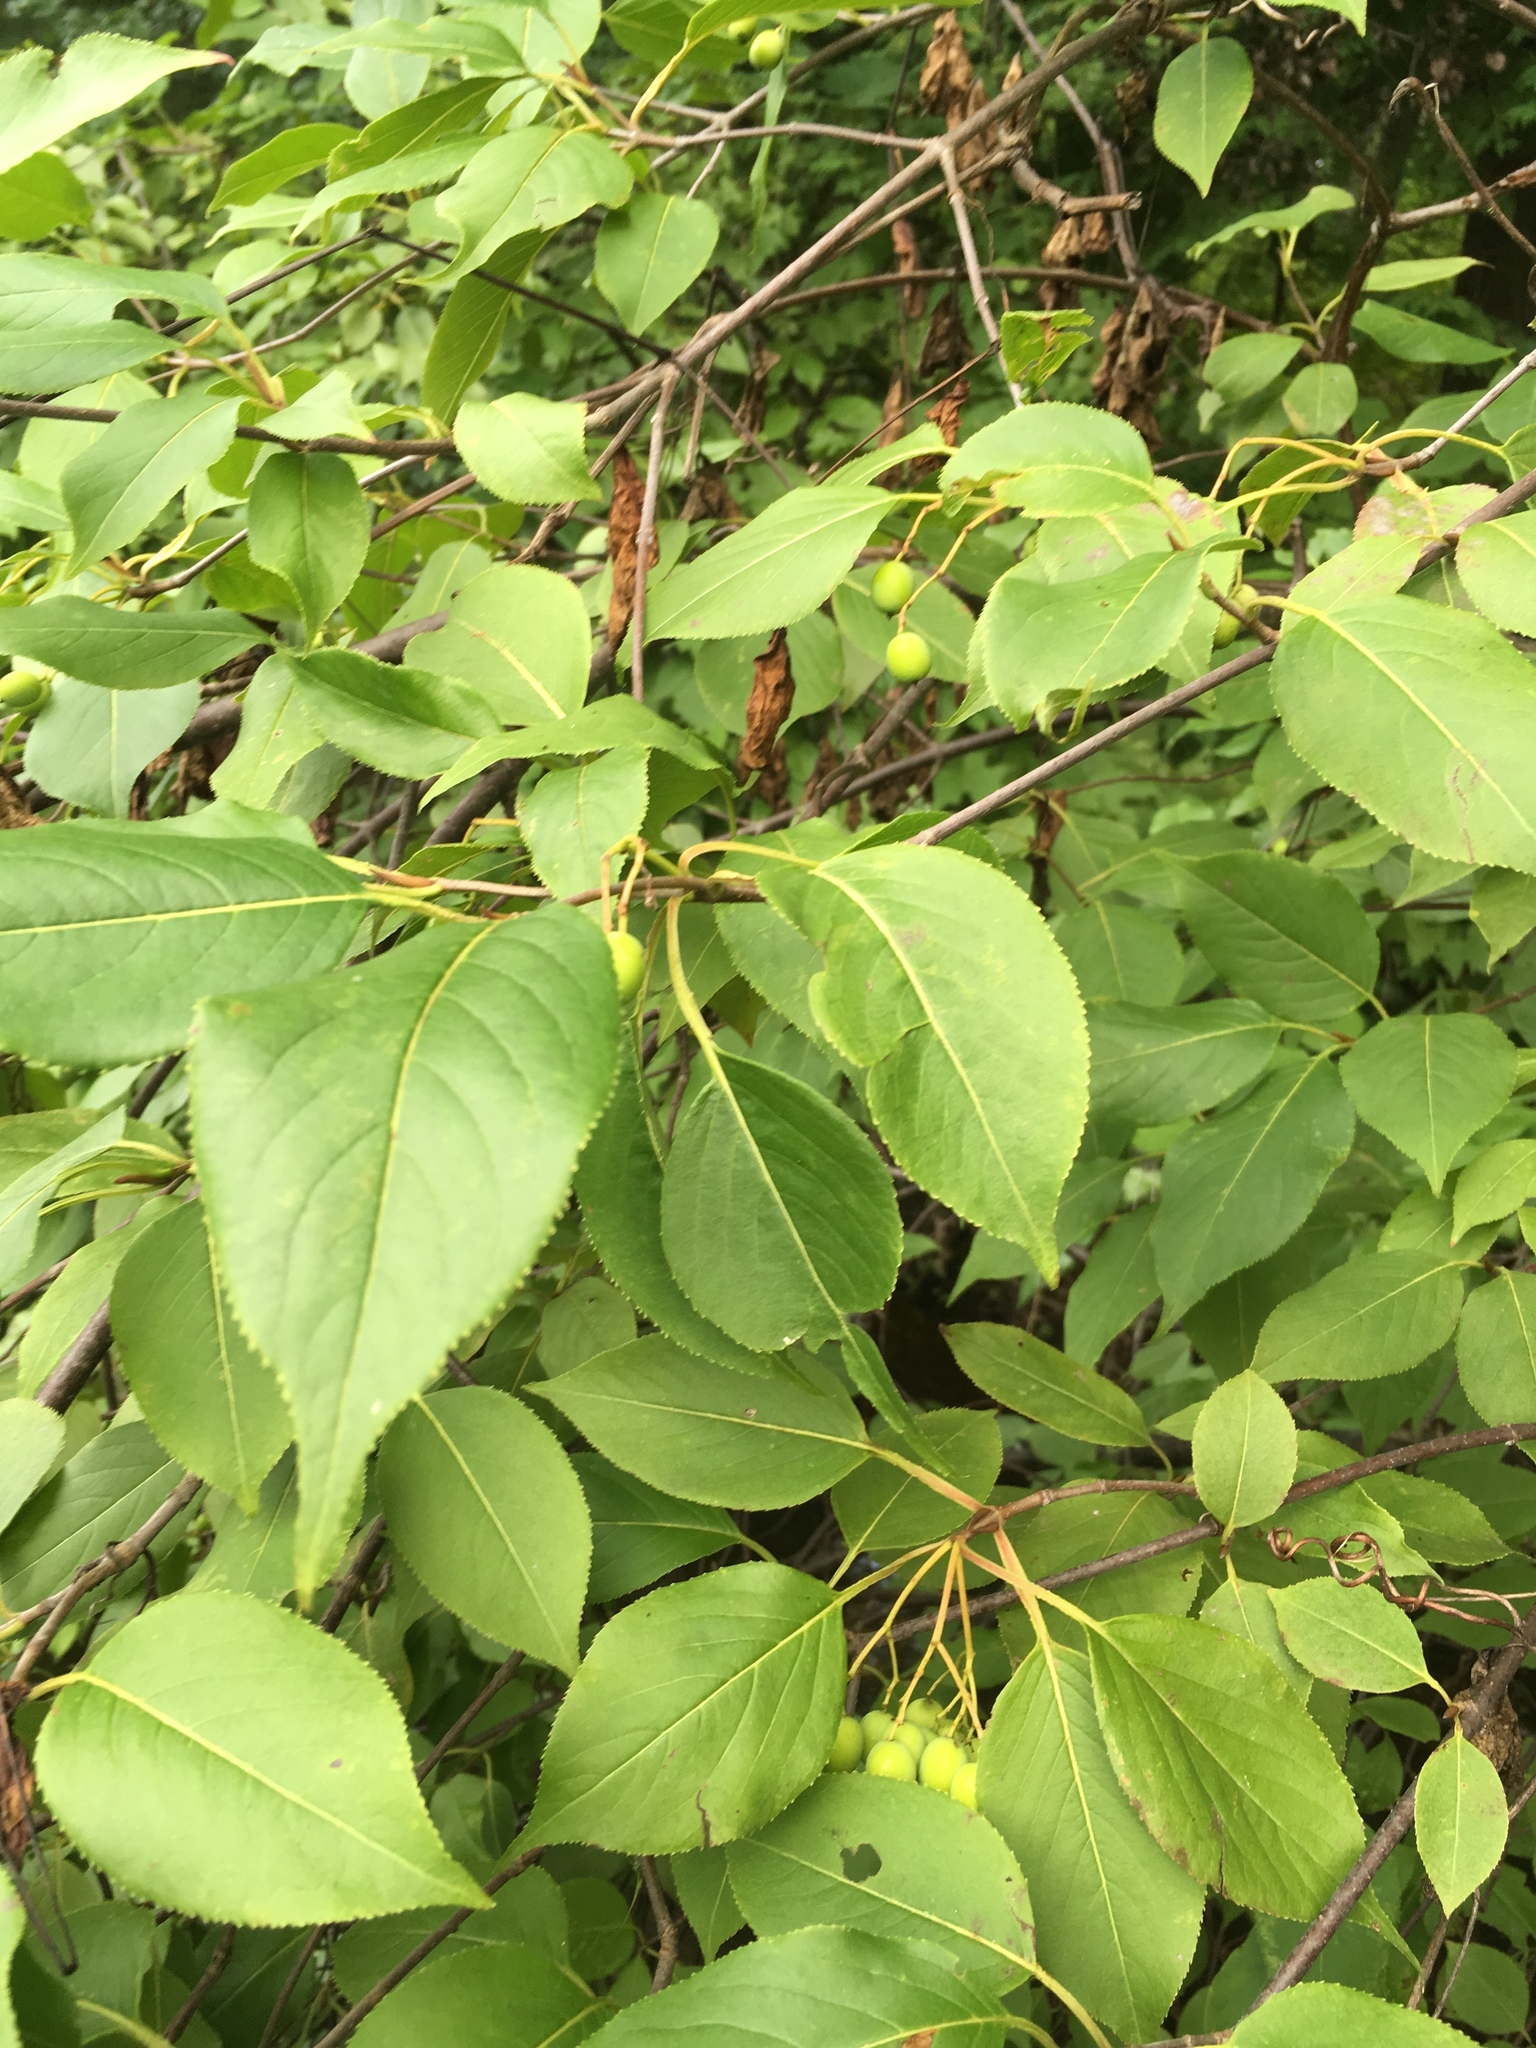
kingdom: Plantae
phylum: Tracheophyta
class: Magnoliopsida
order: Dipsacales
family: Viburnaceae
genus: Viburnum
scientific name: Viburnum lentago
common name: Black haw
